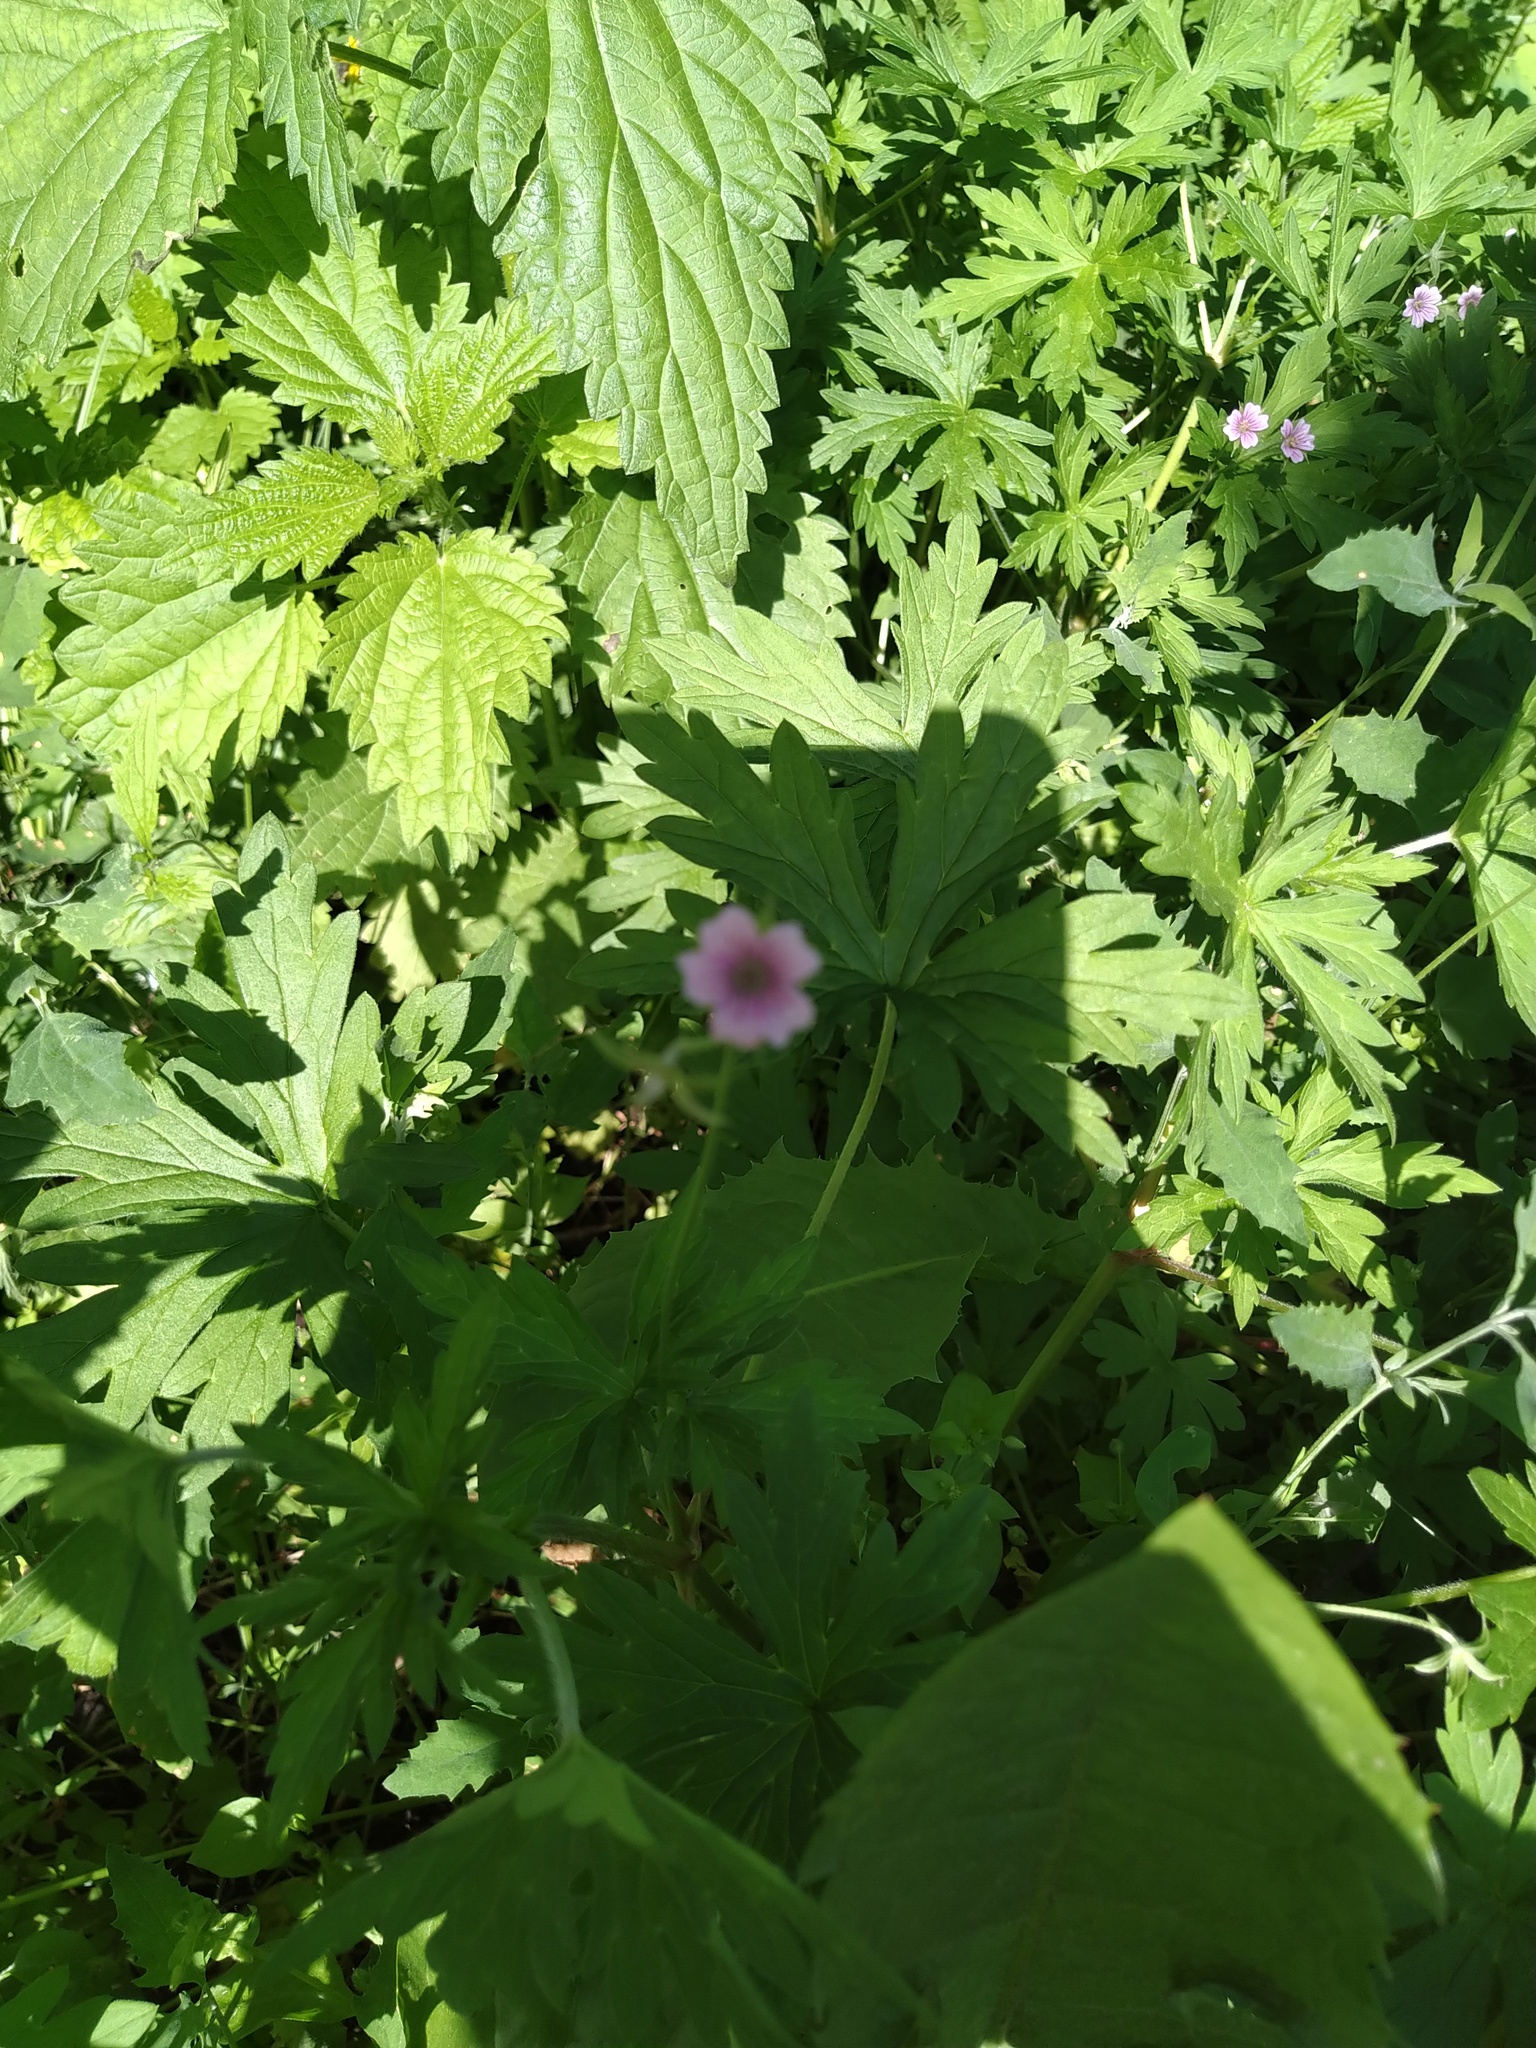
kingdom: Plantae
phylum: Tracheophyta
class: Magnoliopsida
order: Geraniales
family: Geraniaceae
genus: Geranium
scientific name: Geranium sibiricum
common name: Siberian crane's-bill
